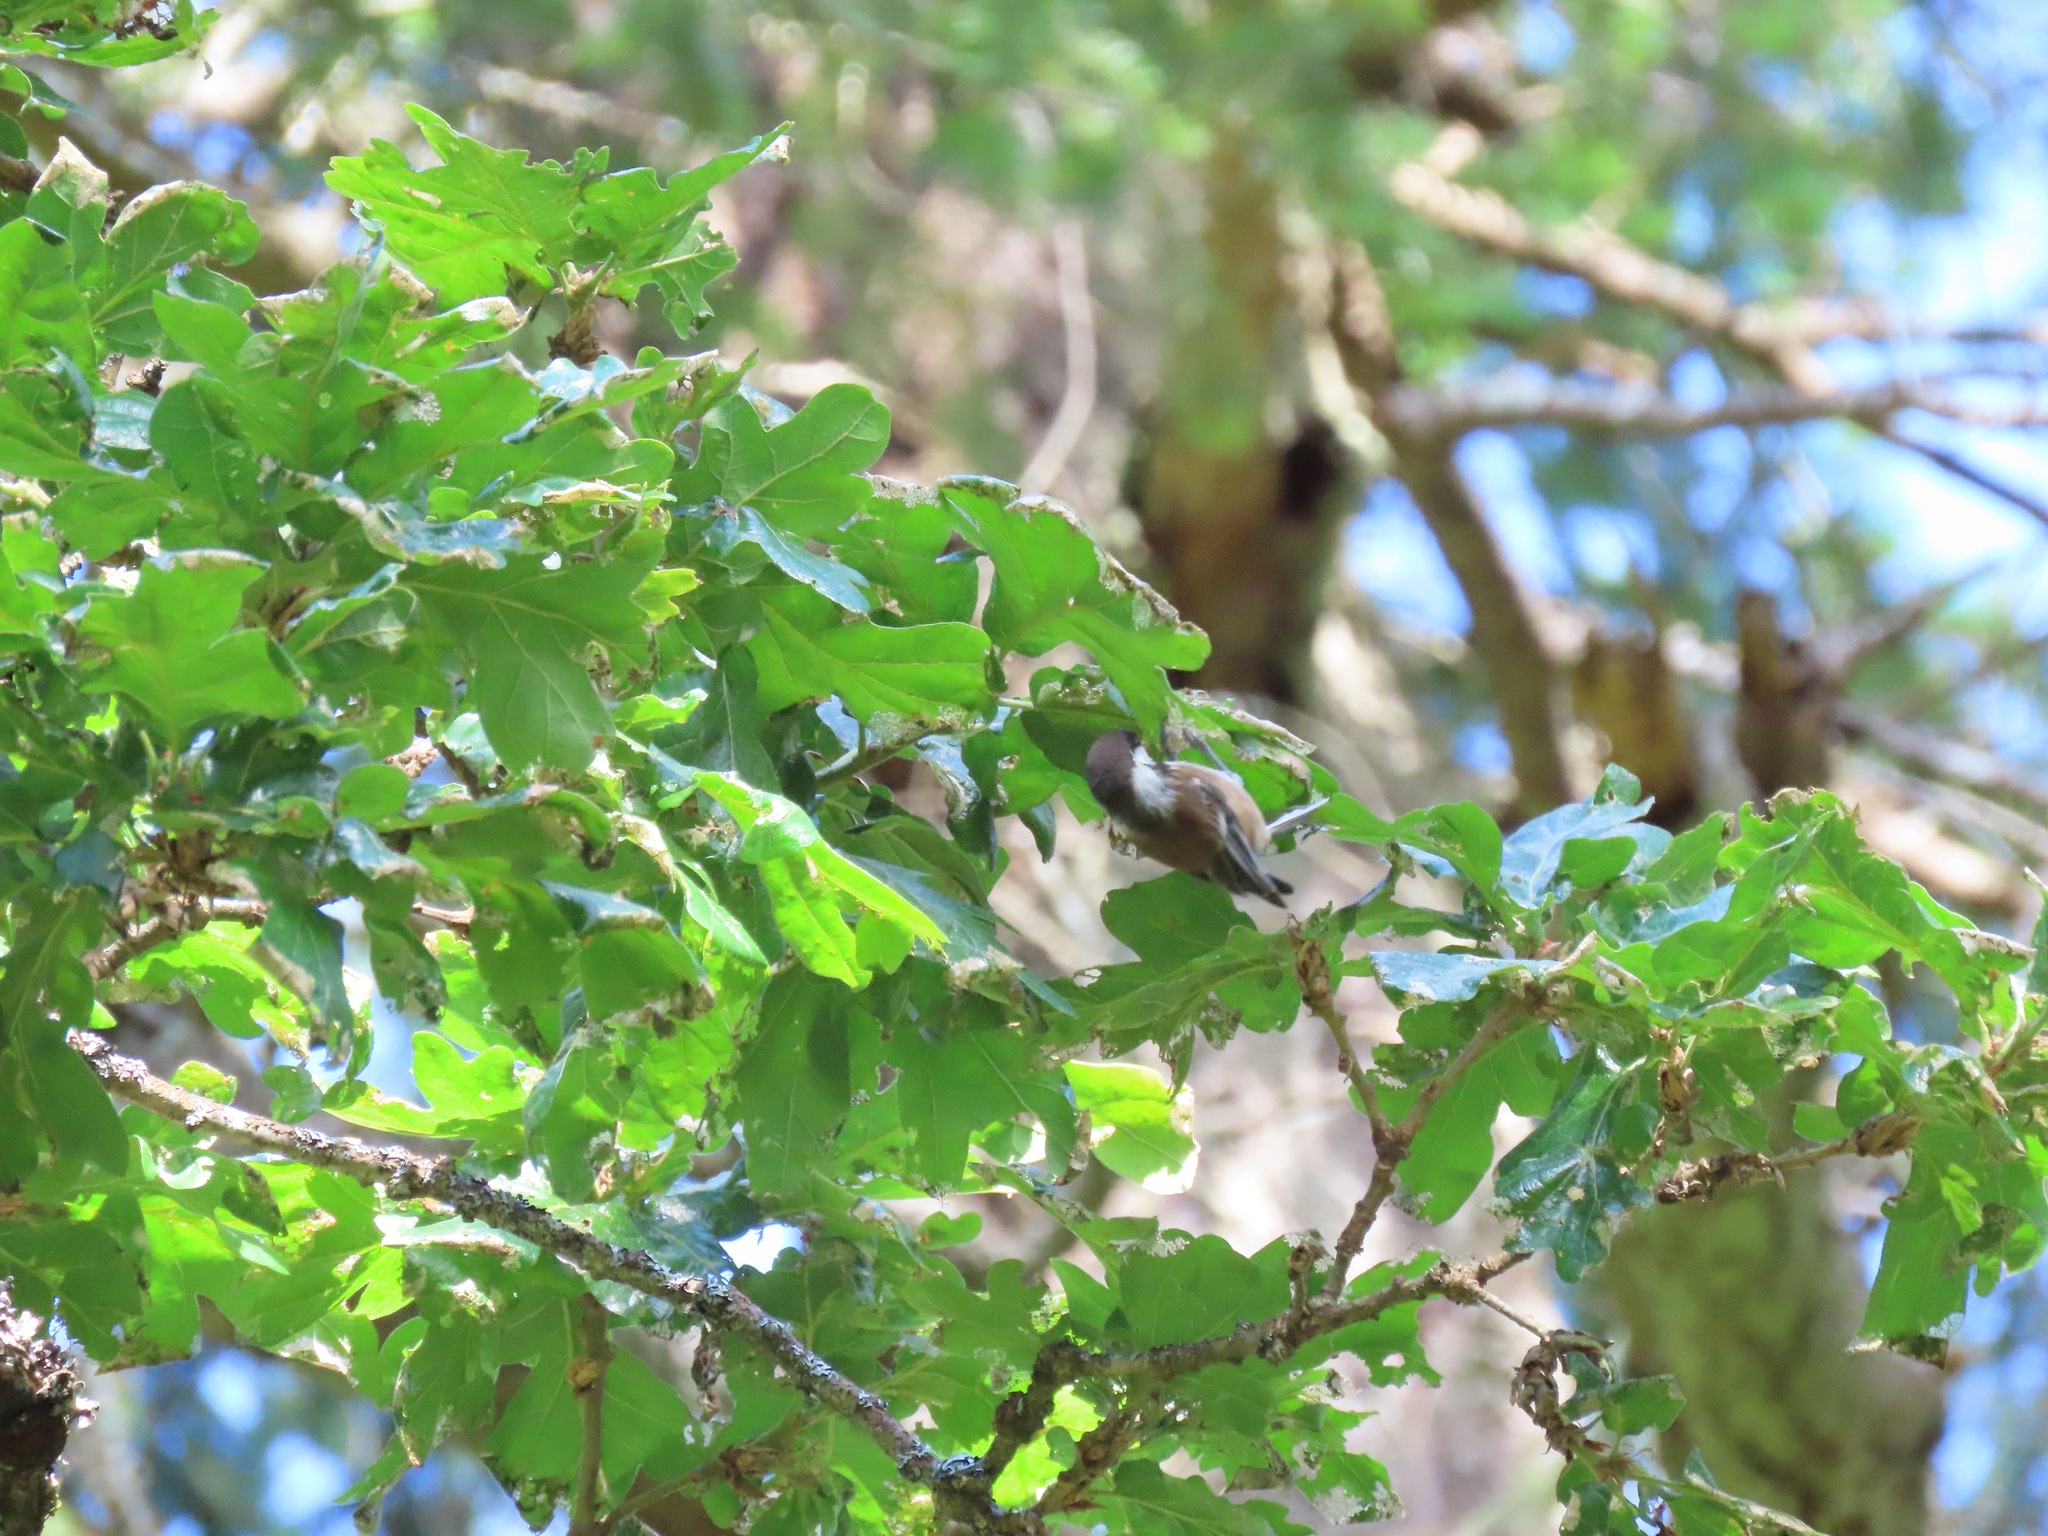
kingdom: Animalia
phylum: Chordata
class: Aves
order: Passeriformes
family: Paridae
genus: Poecile
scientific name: Poecile rufescens
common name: Chestnut-backed chickadee
